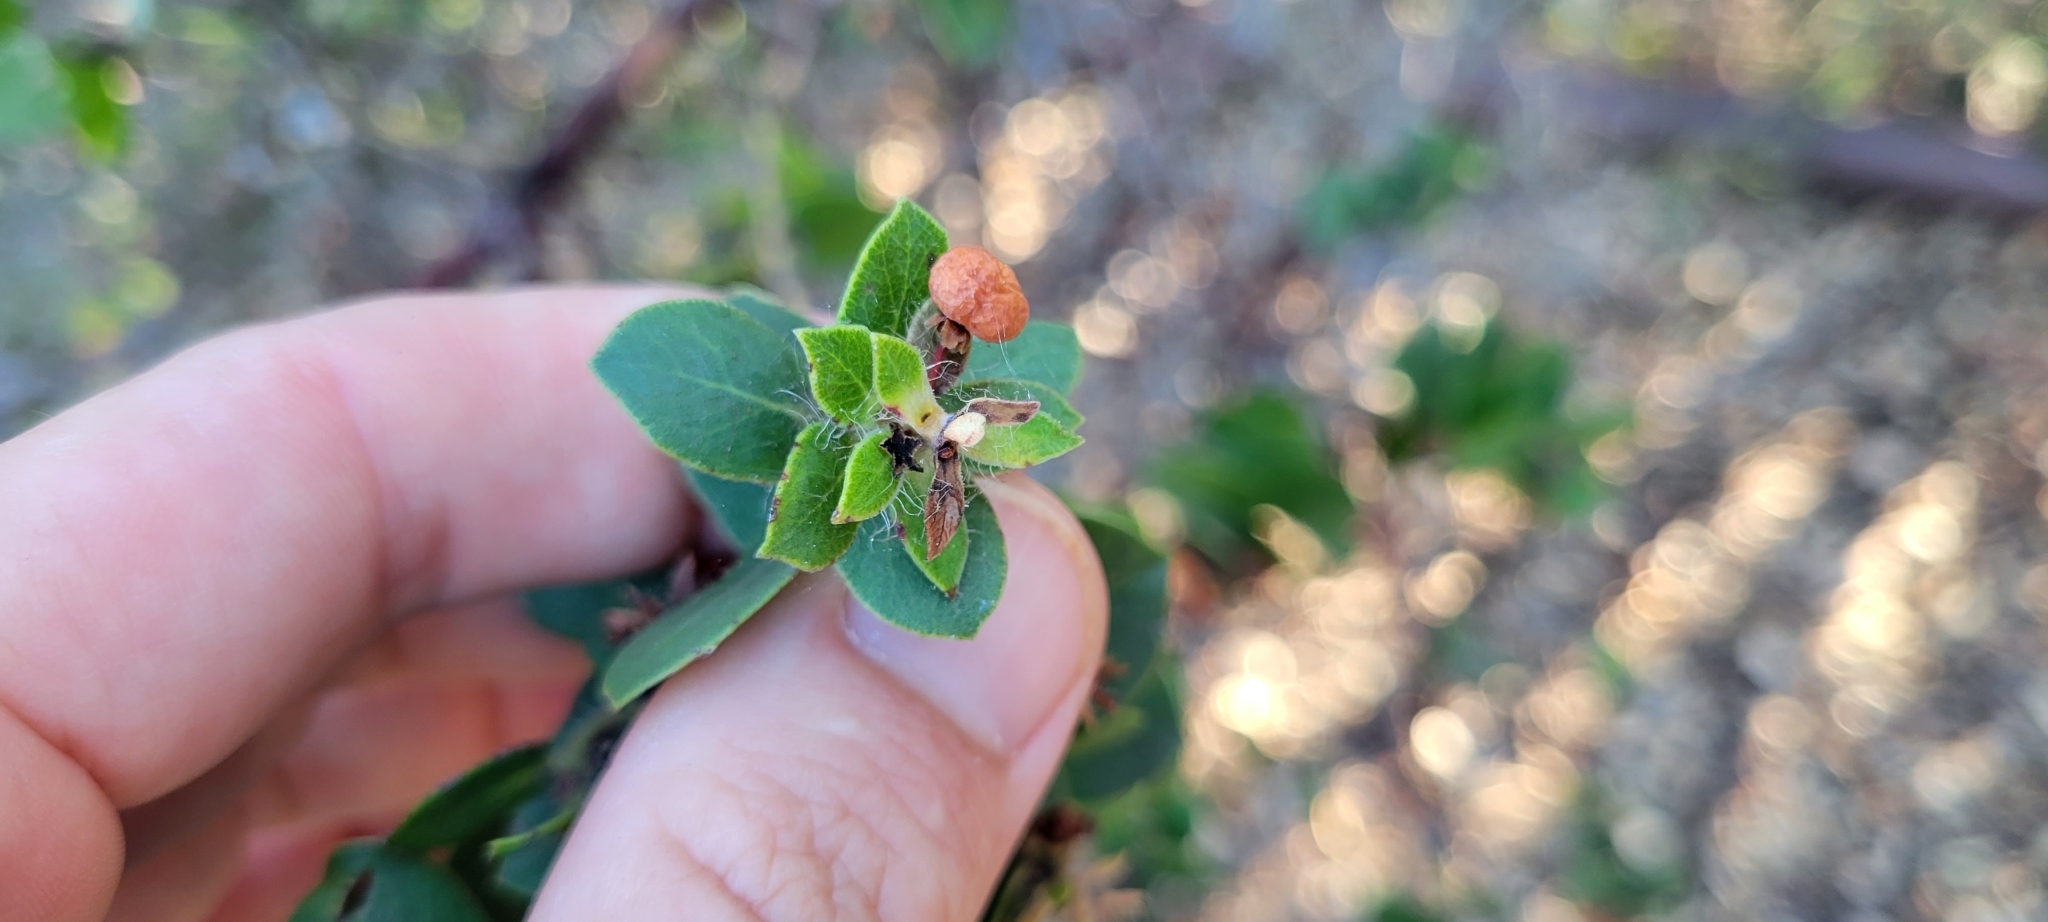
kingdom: Plantae
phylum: Tracheophyta
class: Magnoliopsida
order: Ericales
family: Ericaceae
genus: Arctostaphylos
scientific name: Arctostaphylos purissima
